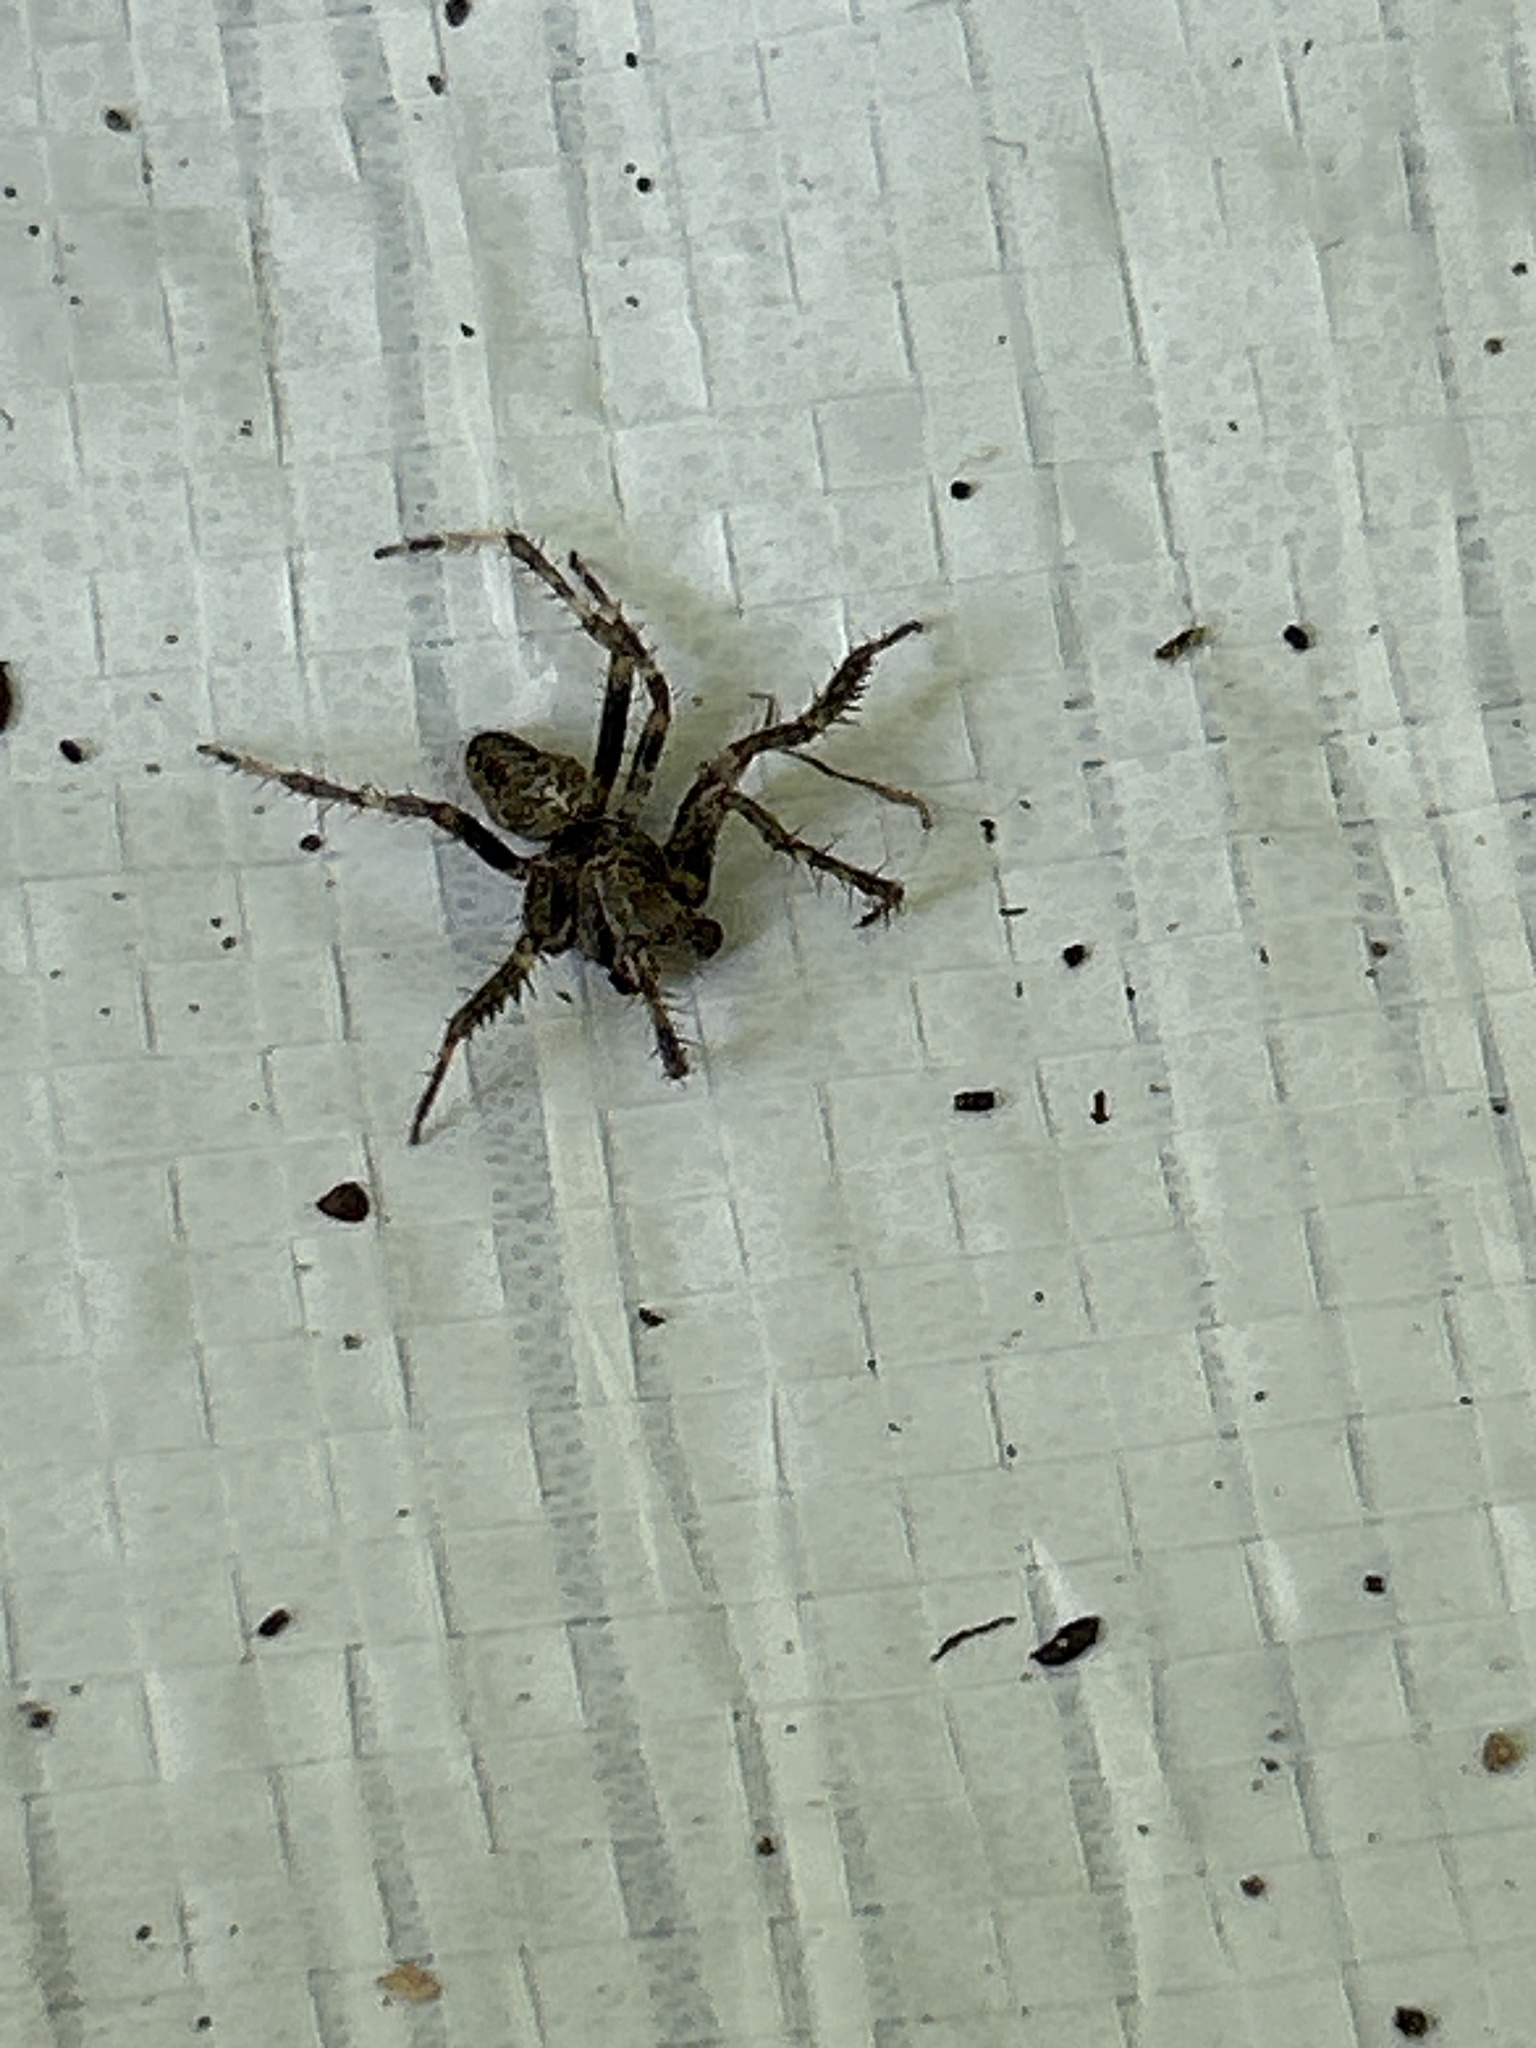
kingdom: Animalia
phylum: Arthropoda
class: Arachnida
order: Araneae
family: Araneidae
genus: Araneus
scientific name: Araneus saevus
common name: Fierce orbweaver
